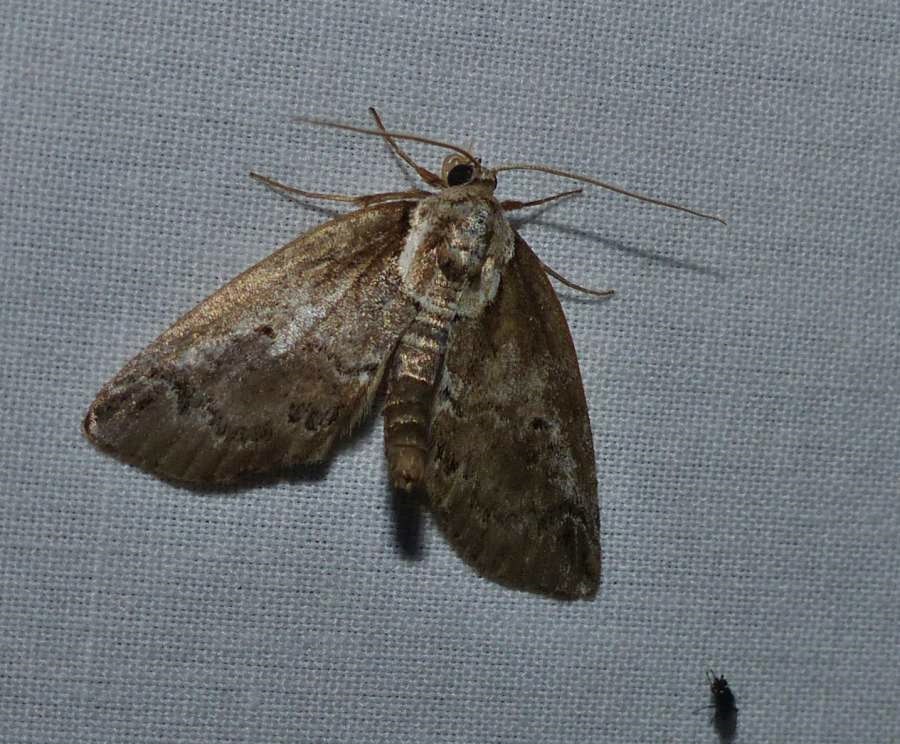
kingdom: Animalia
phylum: Arthropoda
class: Insecta
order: Lepidoptera
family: Nolidae
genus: Baileya
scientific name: Baileya ophthalmica
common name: Eyed baileya moth
